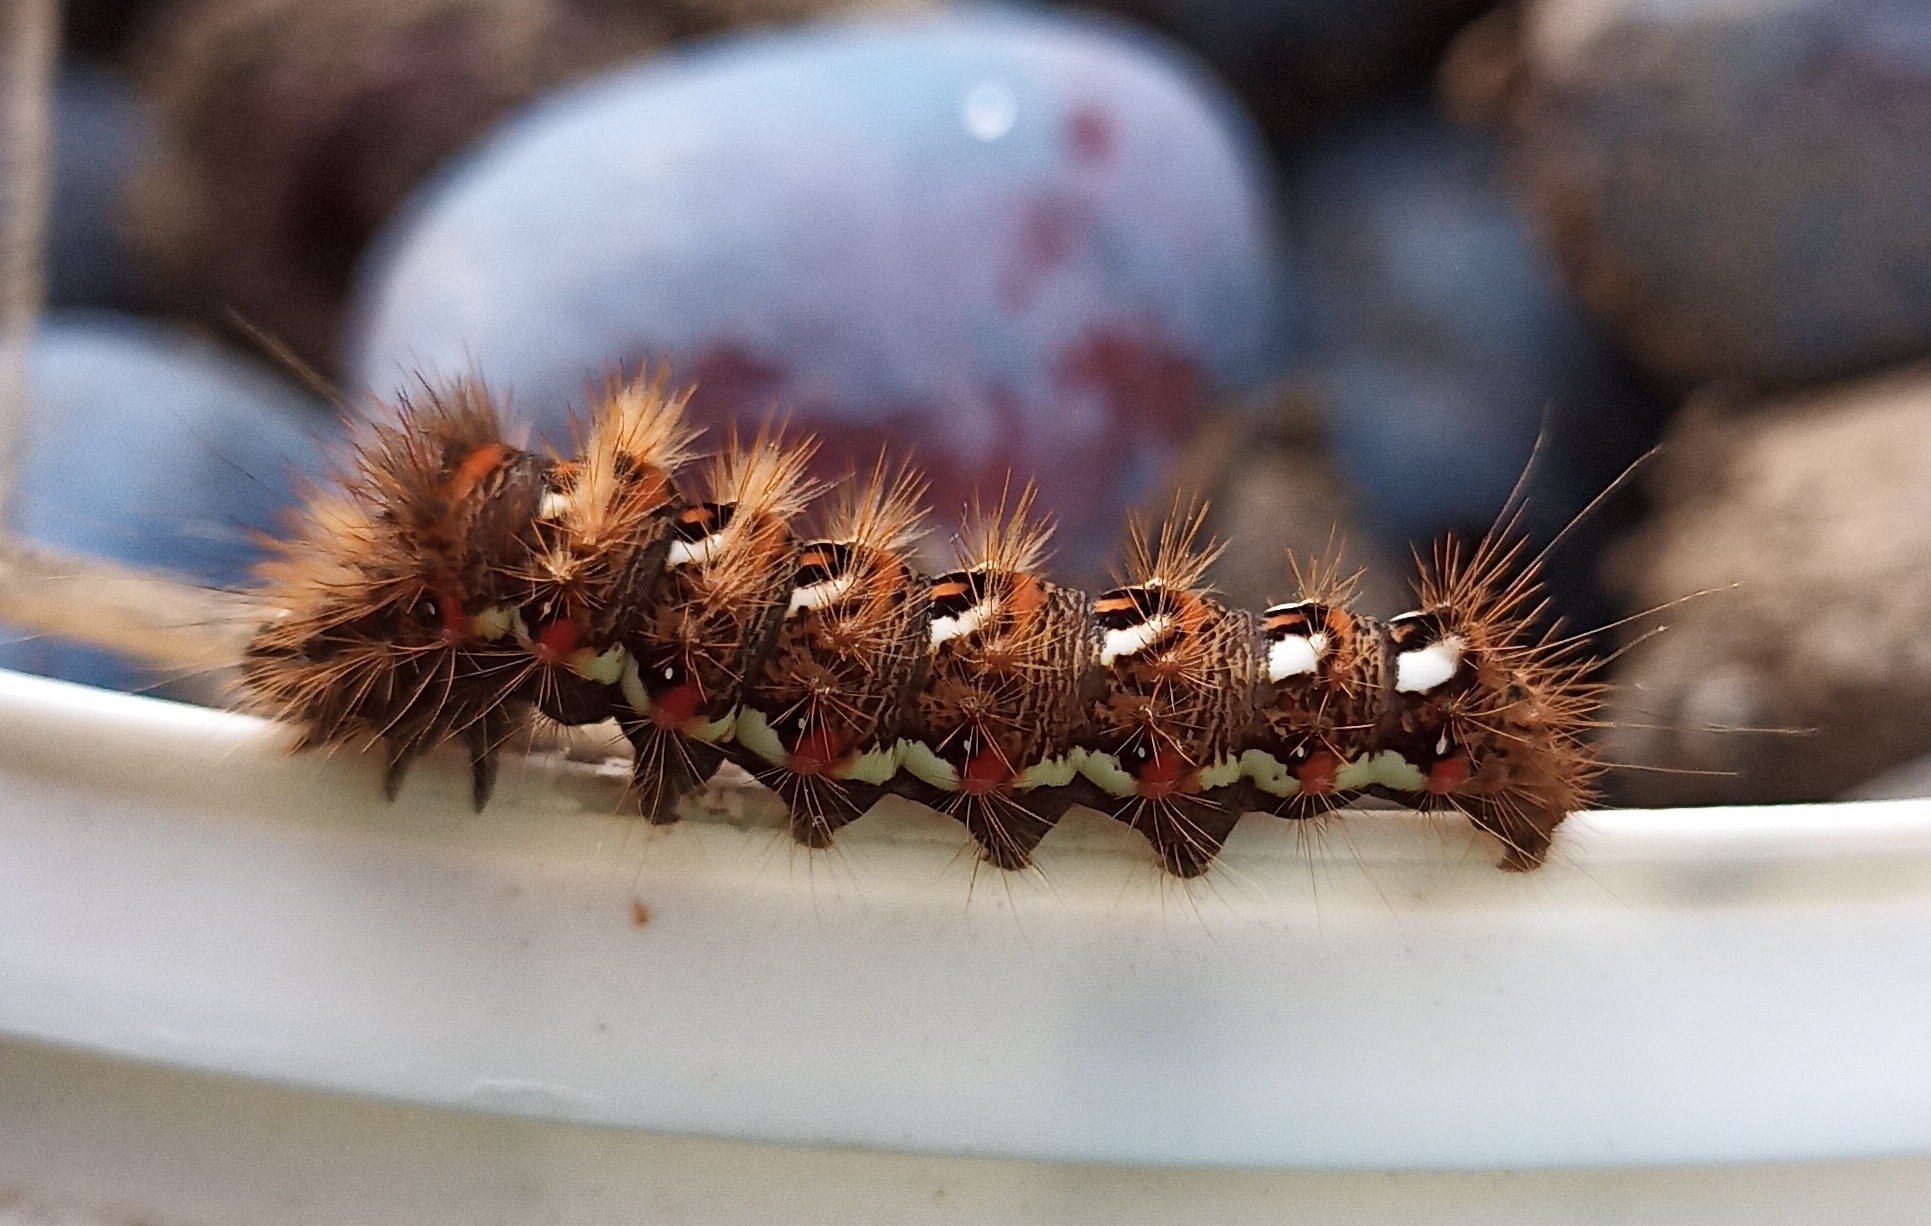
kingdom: Animalia
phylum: Arthropoda
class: Insecta
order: Lepidoptera
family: Noctuidae
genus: Acronicta
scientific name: Acronicta rumicis
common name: Knot grass
